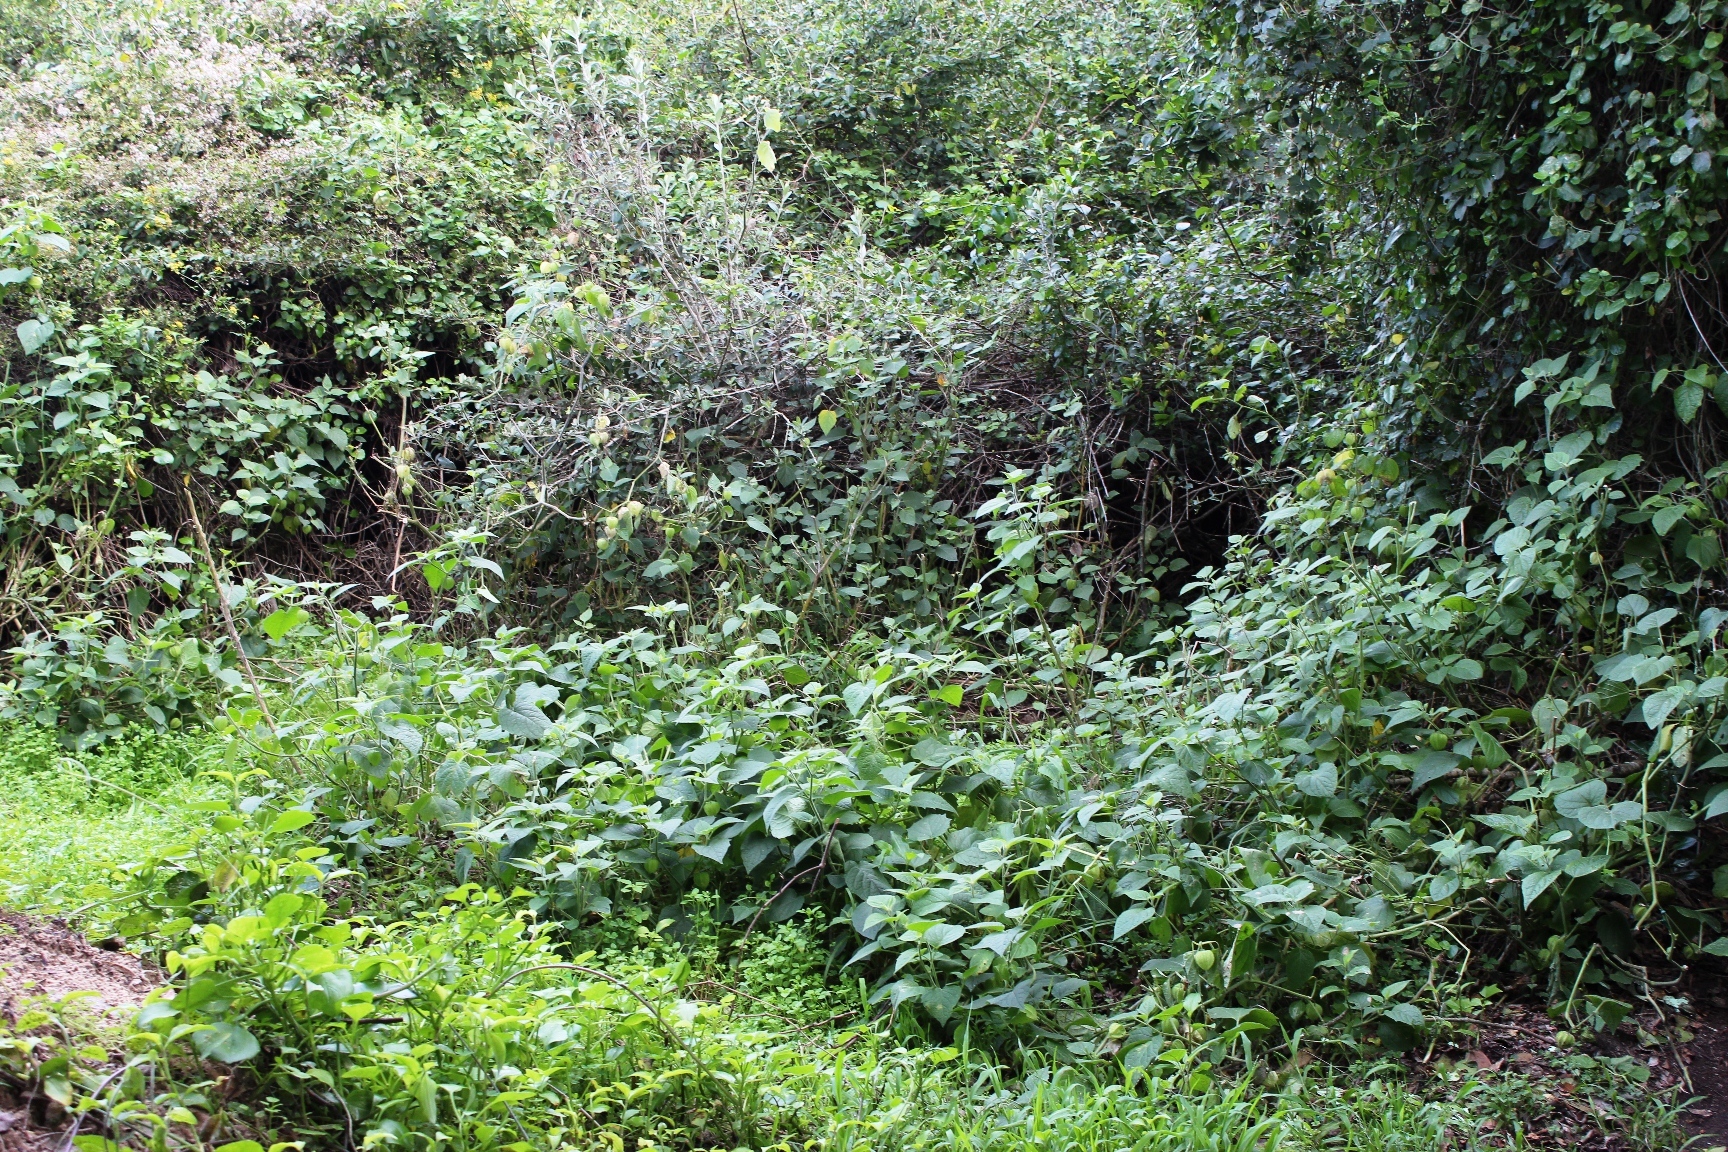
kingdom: Plantae
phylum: Tracheophyta
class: Magnoliopsida
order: Solanales
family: Solanaceae
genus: Physalis
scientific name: Physalis peruviana
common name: Cape-gooseberry
